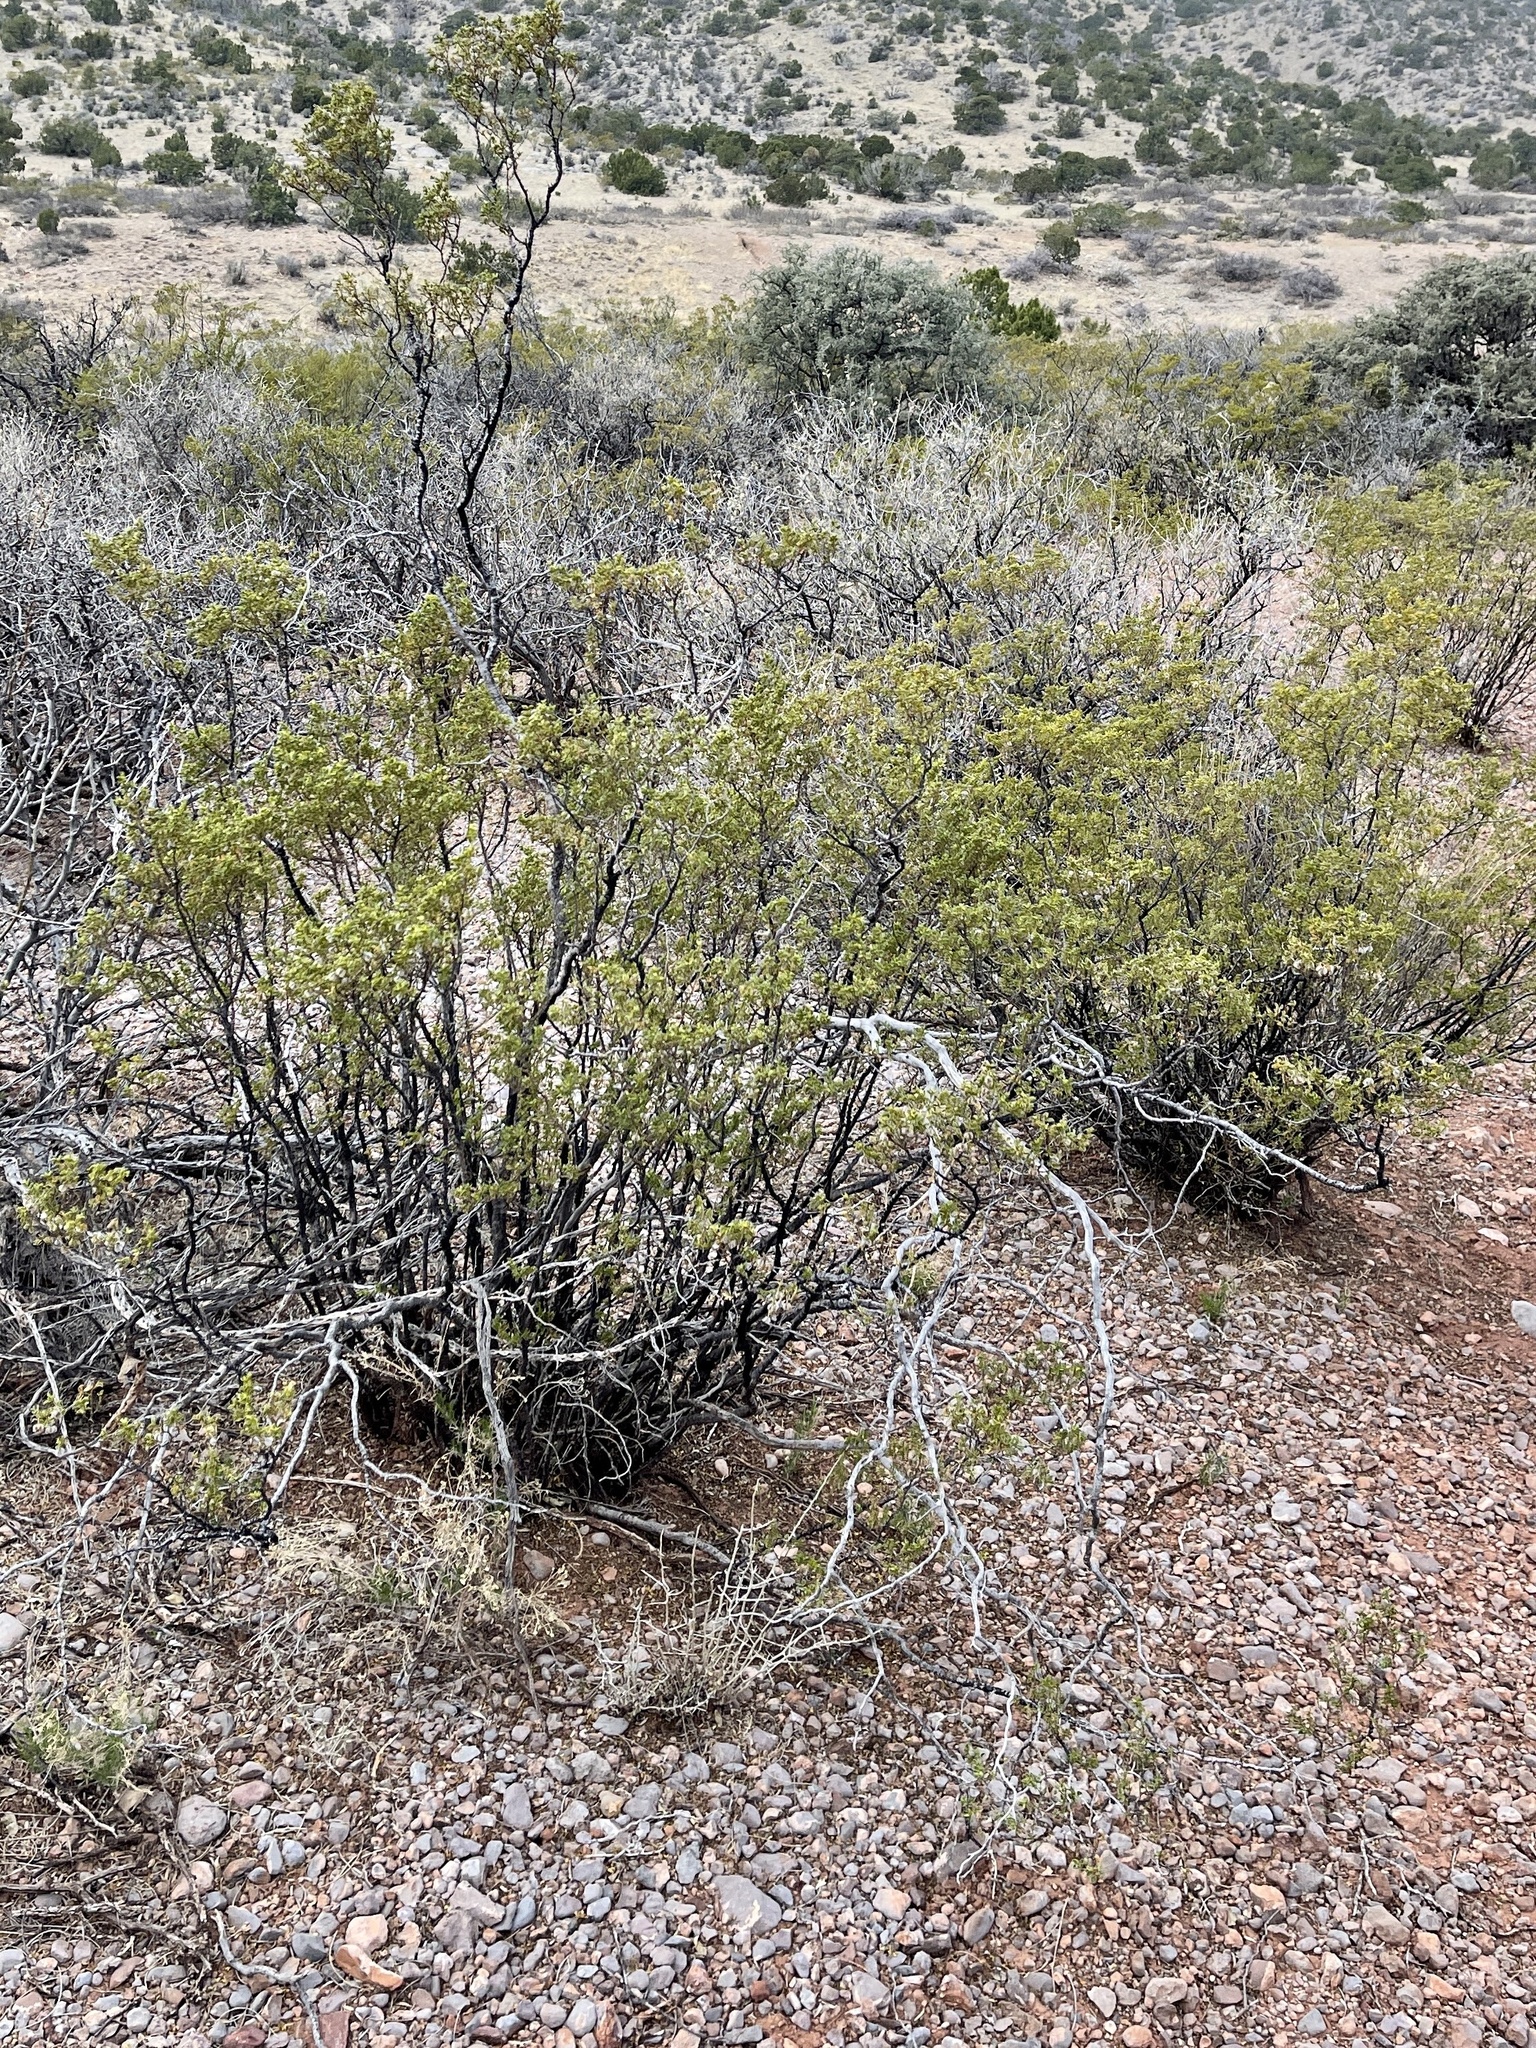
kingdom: Plantae
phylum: Tracheophyta
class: Magnoliopsida
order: Zygophyllales
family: Zygophyllaceae
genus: Larrea
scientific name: Larrea tridentata
